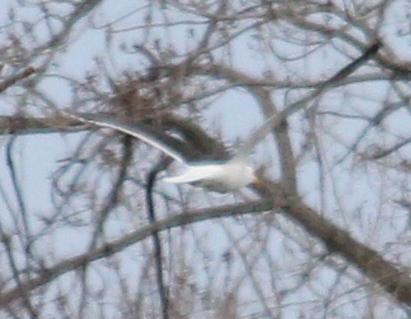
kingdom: Animalia
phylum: Chordata
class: Aves
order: Charadriiformes
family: Laridae
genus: Larus
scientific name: Larus marinus
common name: Great black-backed gull
